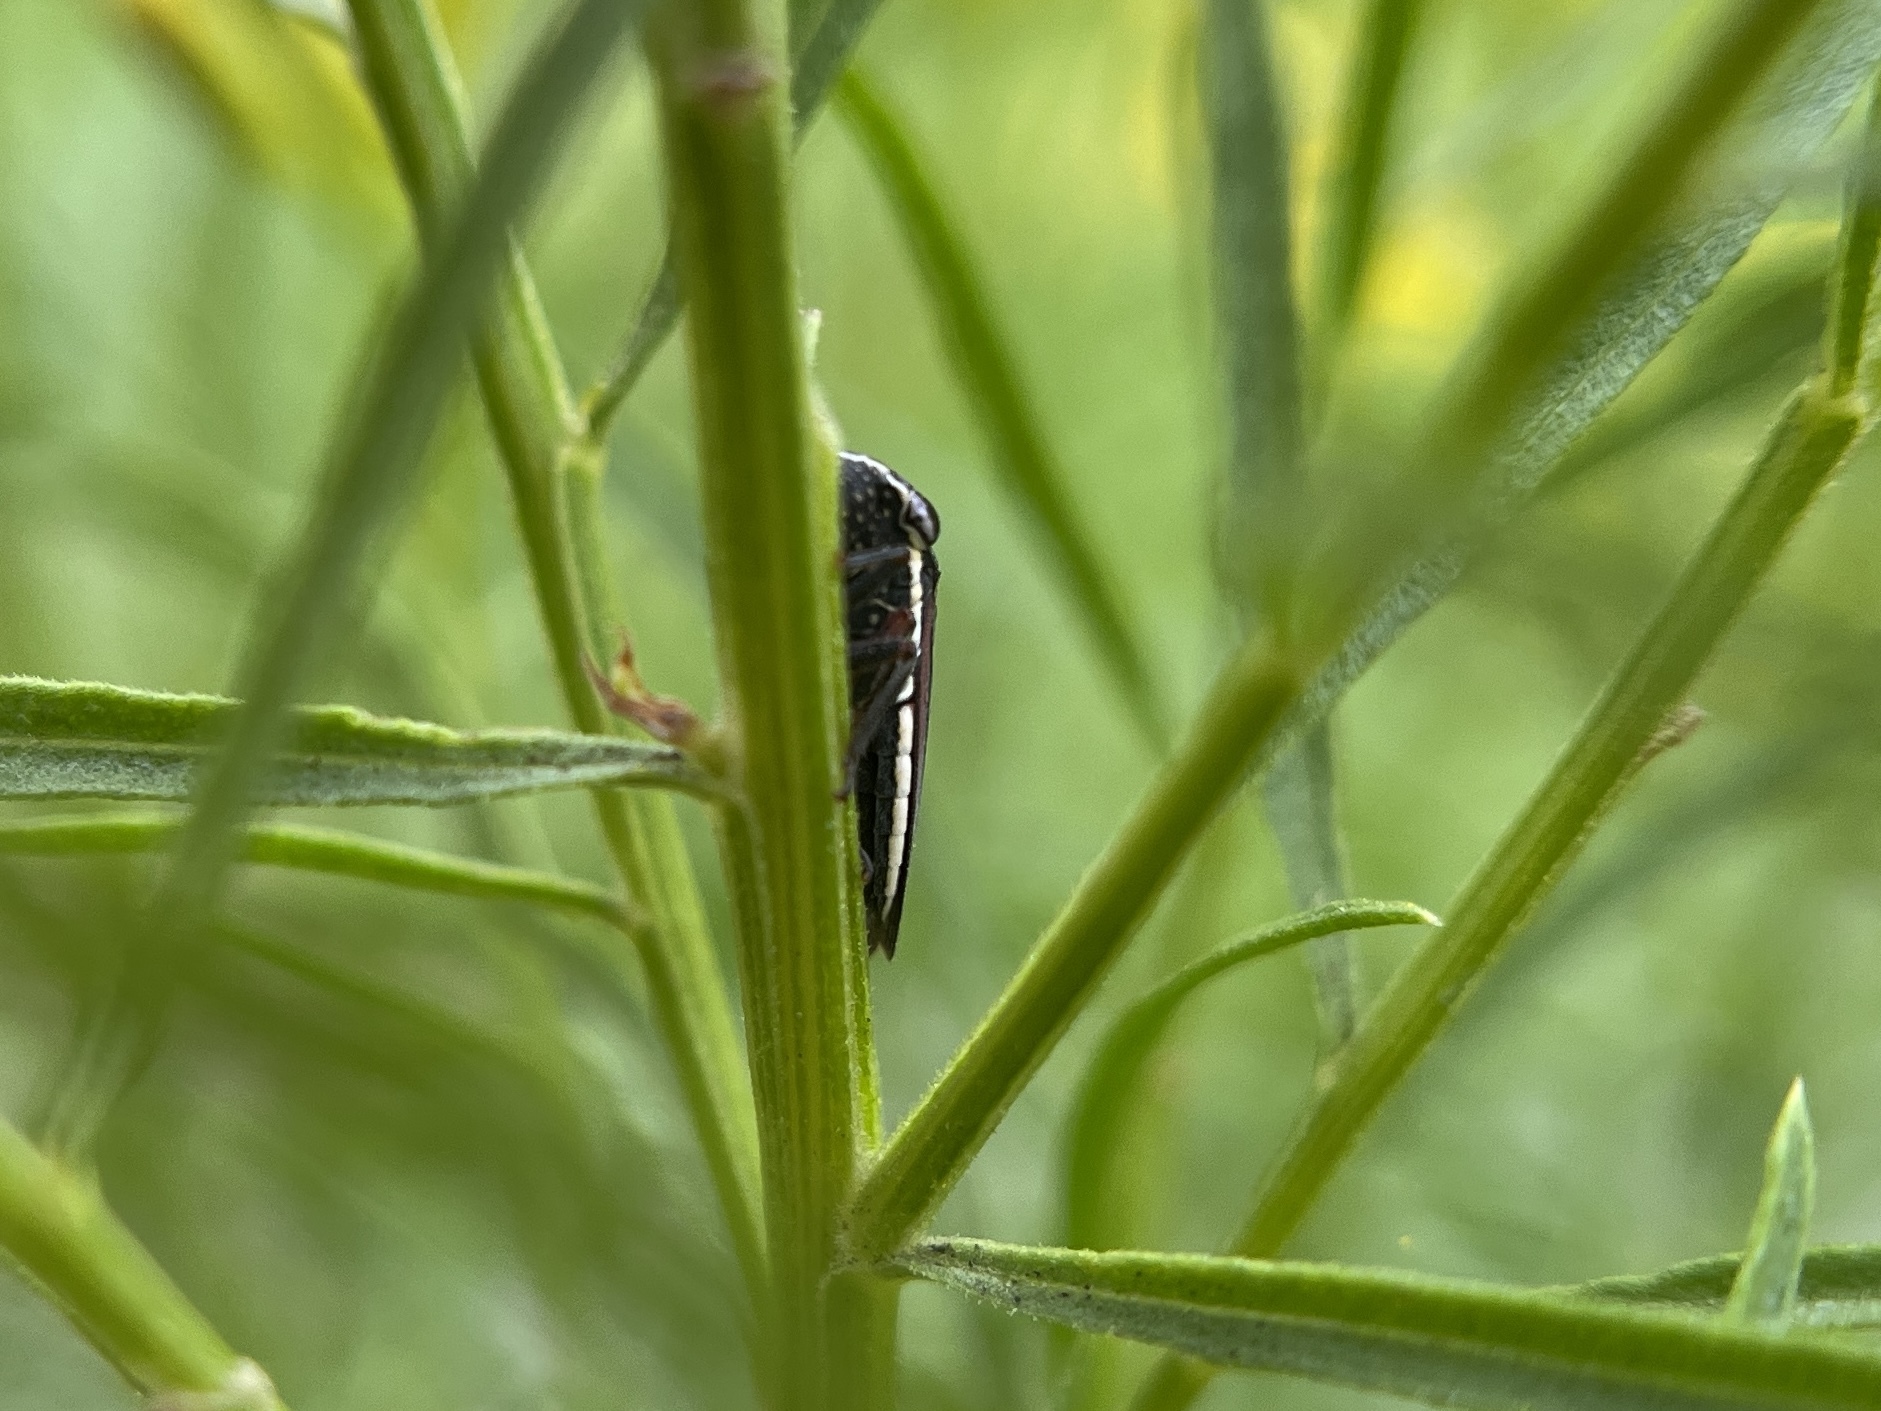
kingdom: Animalia
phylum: Arthropoda
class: Insecta
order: Hemiptera
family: Cicadellidae
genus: Cuerna
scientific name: Cuerna costalis
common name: Lateral-lined sharpshooter
